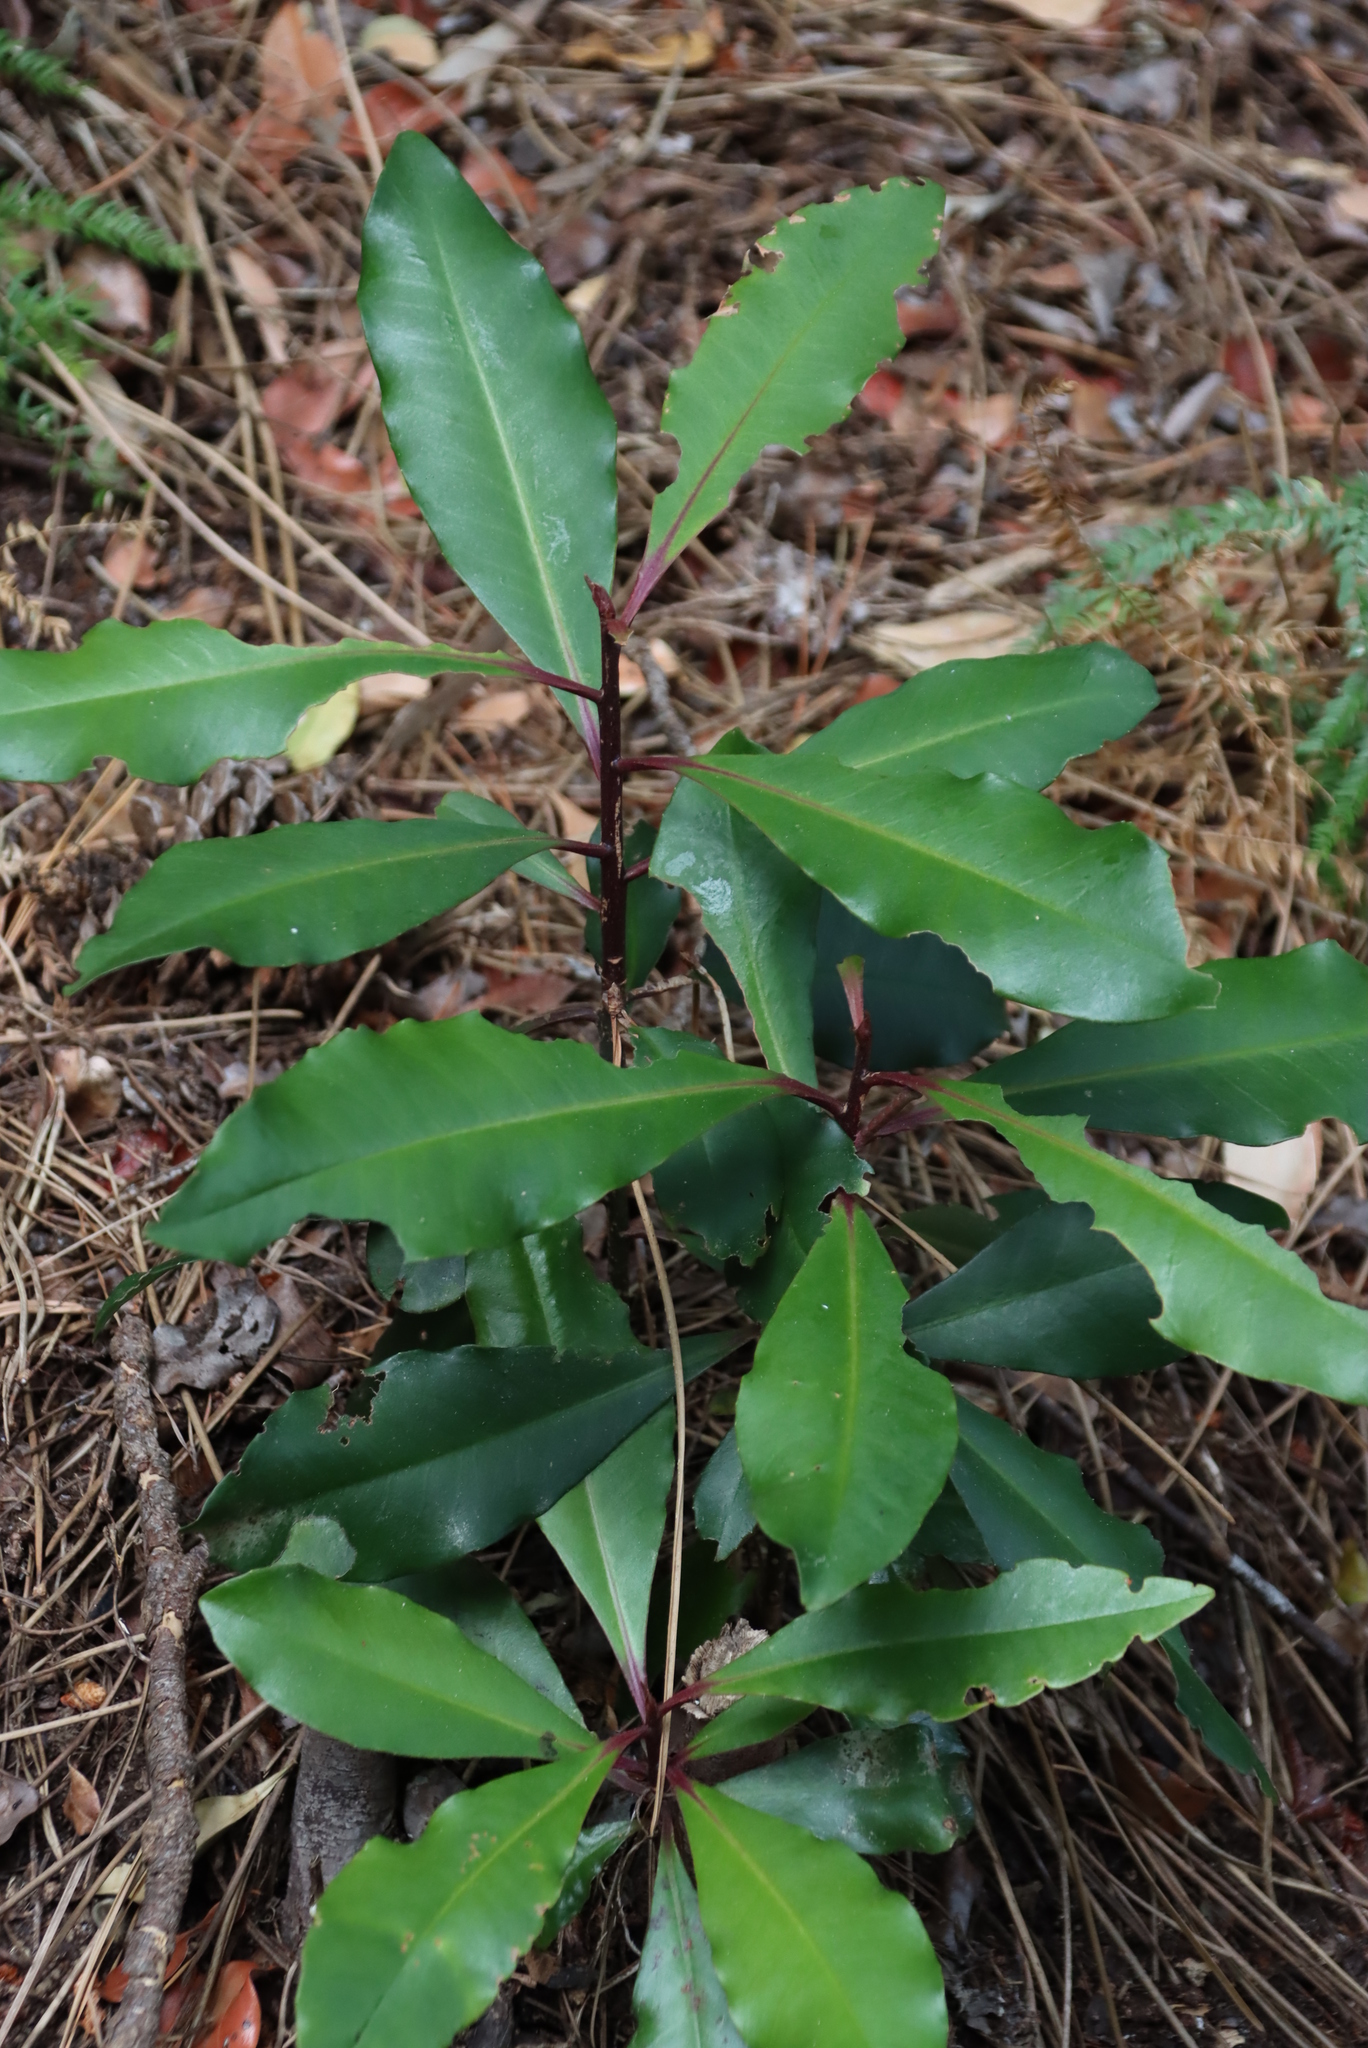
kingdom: Plantae
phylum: Tracheophyta
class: Magnoliopsida
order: Ericales
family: Primulaceae
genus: Myrsine
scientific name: Myrsine melanophloeos
